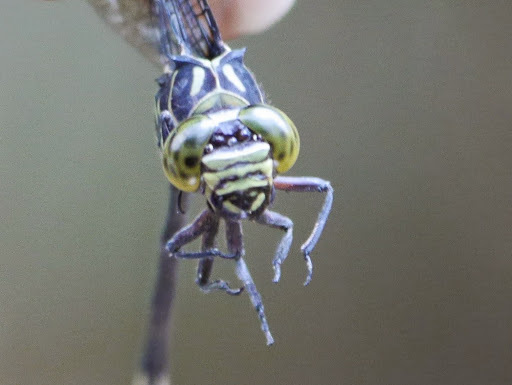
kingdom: Animalia
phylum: Arthropoda
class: Insecta
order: Odonata
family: Gomphidae
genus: Diastatomma
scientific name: Diastatomma selysi
